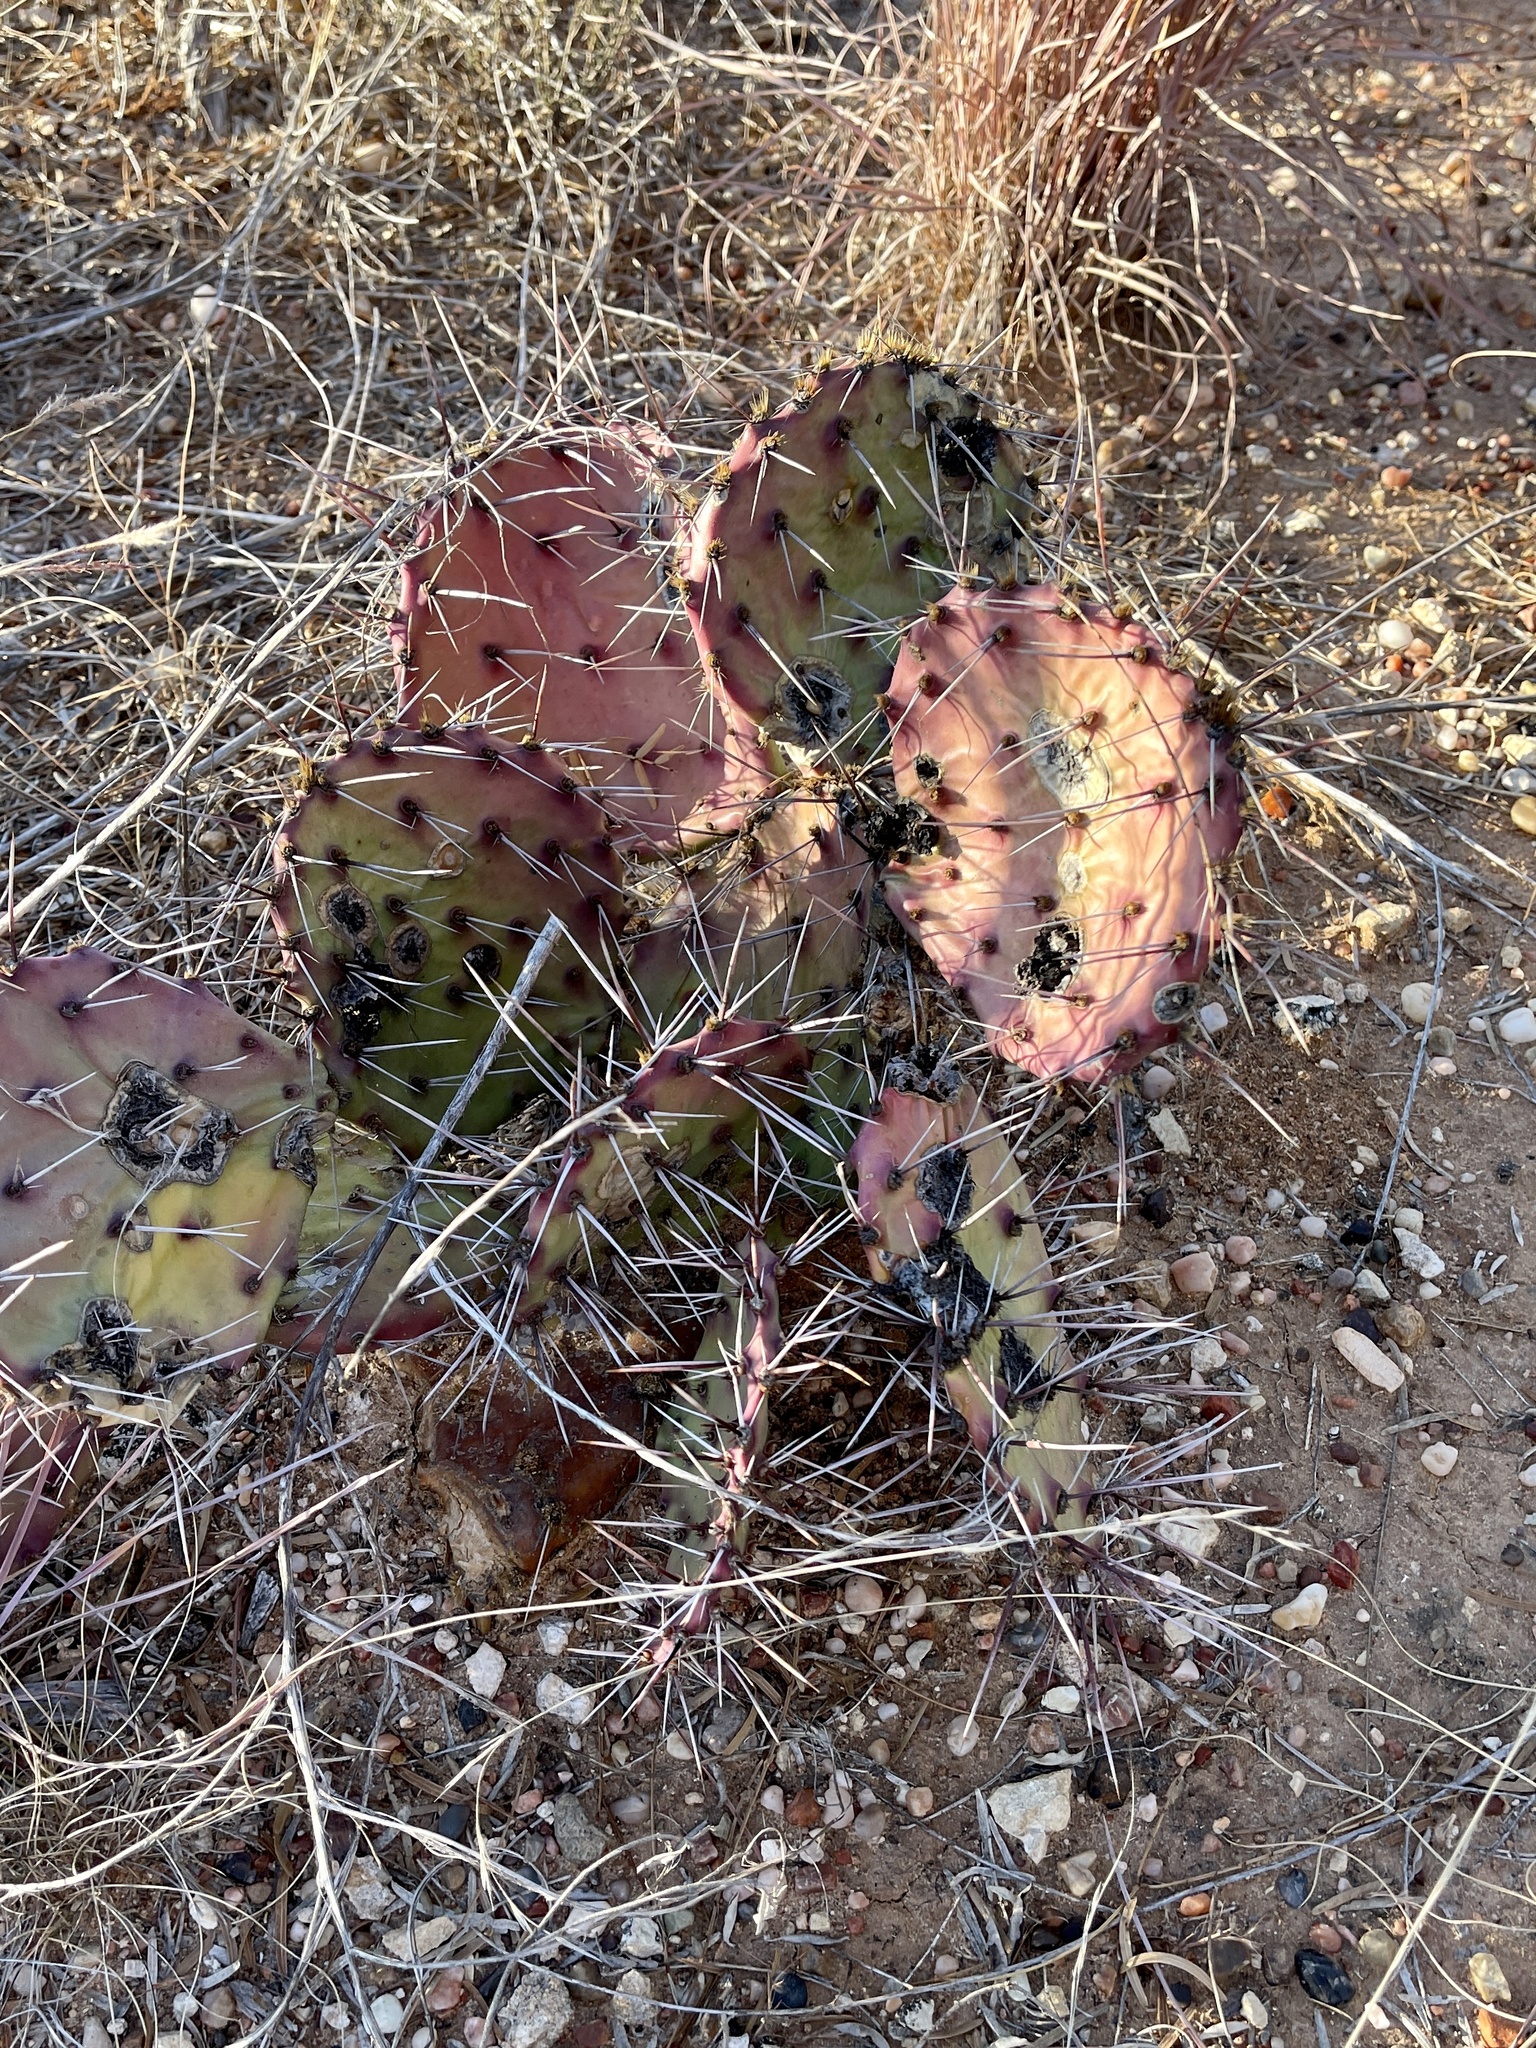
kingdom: Plantae
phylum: Tracheophyta
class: Magnoliopsida
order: Caryophyllales
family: Cactaceae
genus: Opuntia
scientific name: Opuntia macrorhiza
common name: Grassland pricklypear
